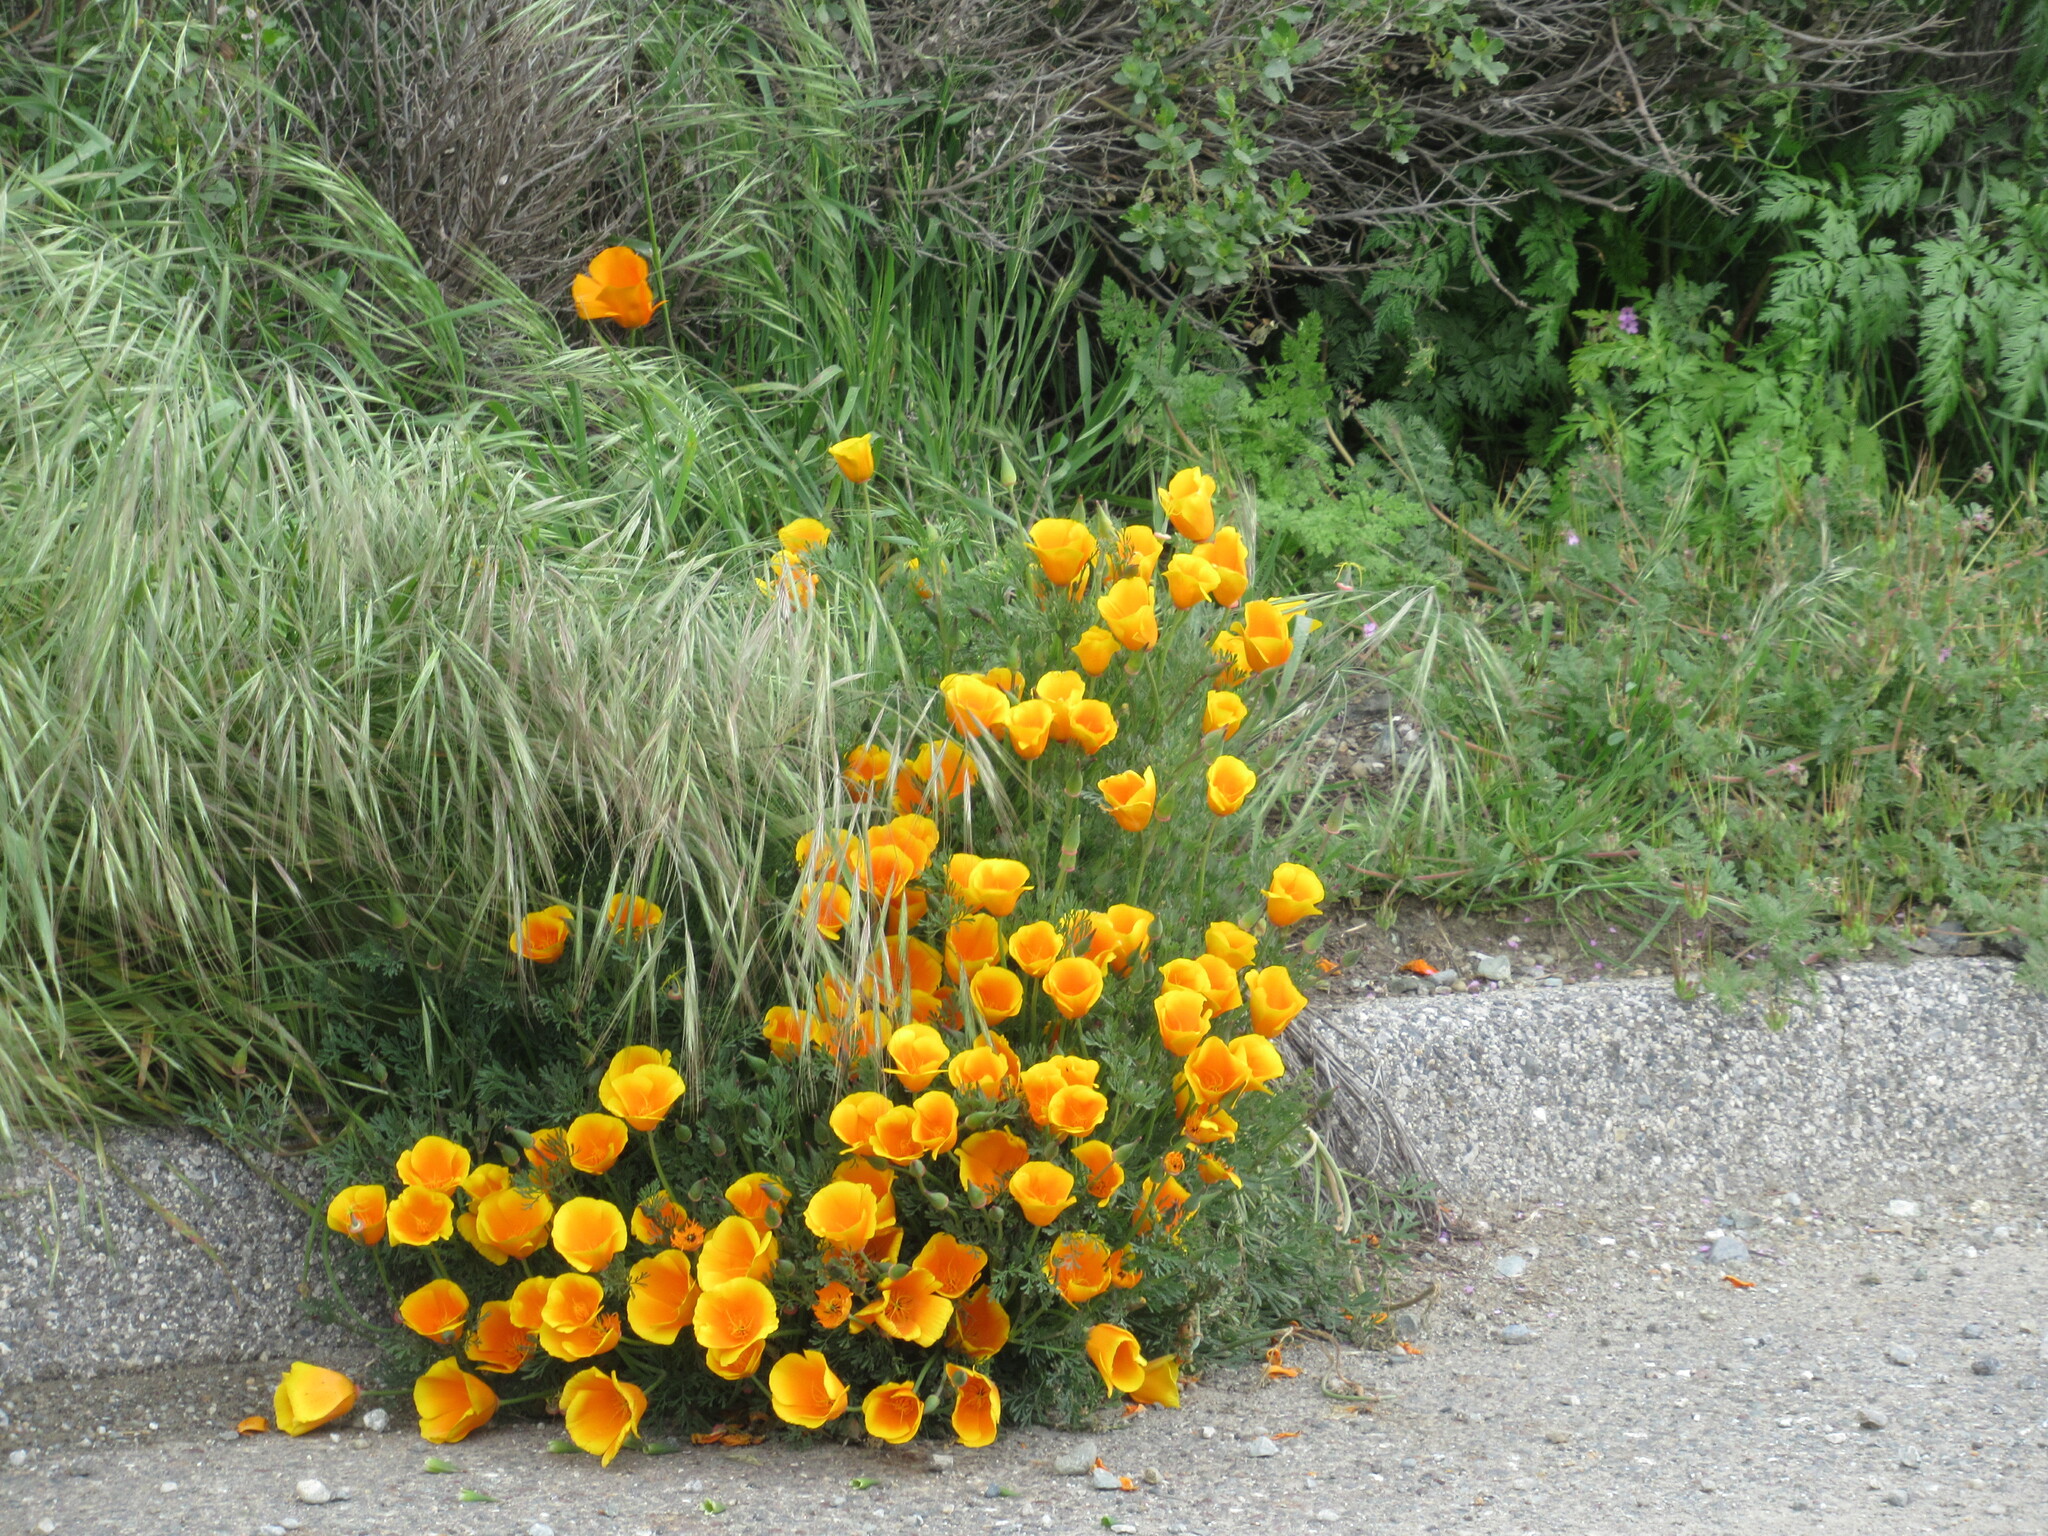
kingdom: Plantae
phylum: Tracheophyta
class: Magnoliopsida
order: Ranunculales
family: Papaveraceae
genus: Eschscholzia
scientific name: Eschscholzia californica
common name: California poppy
